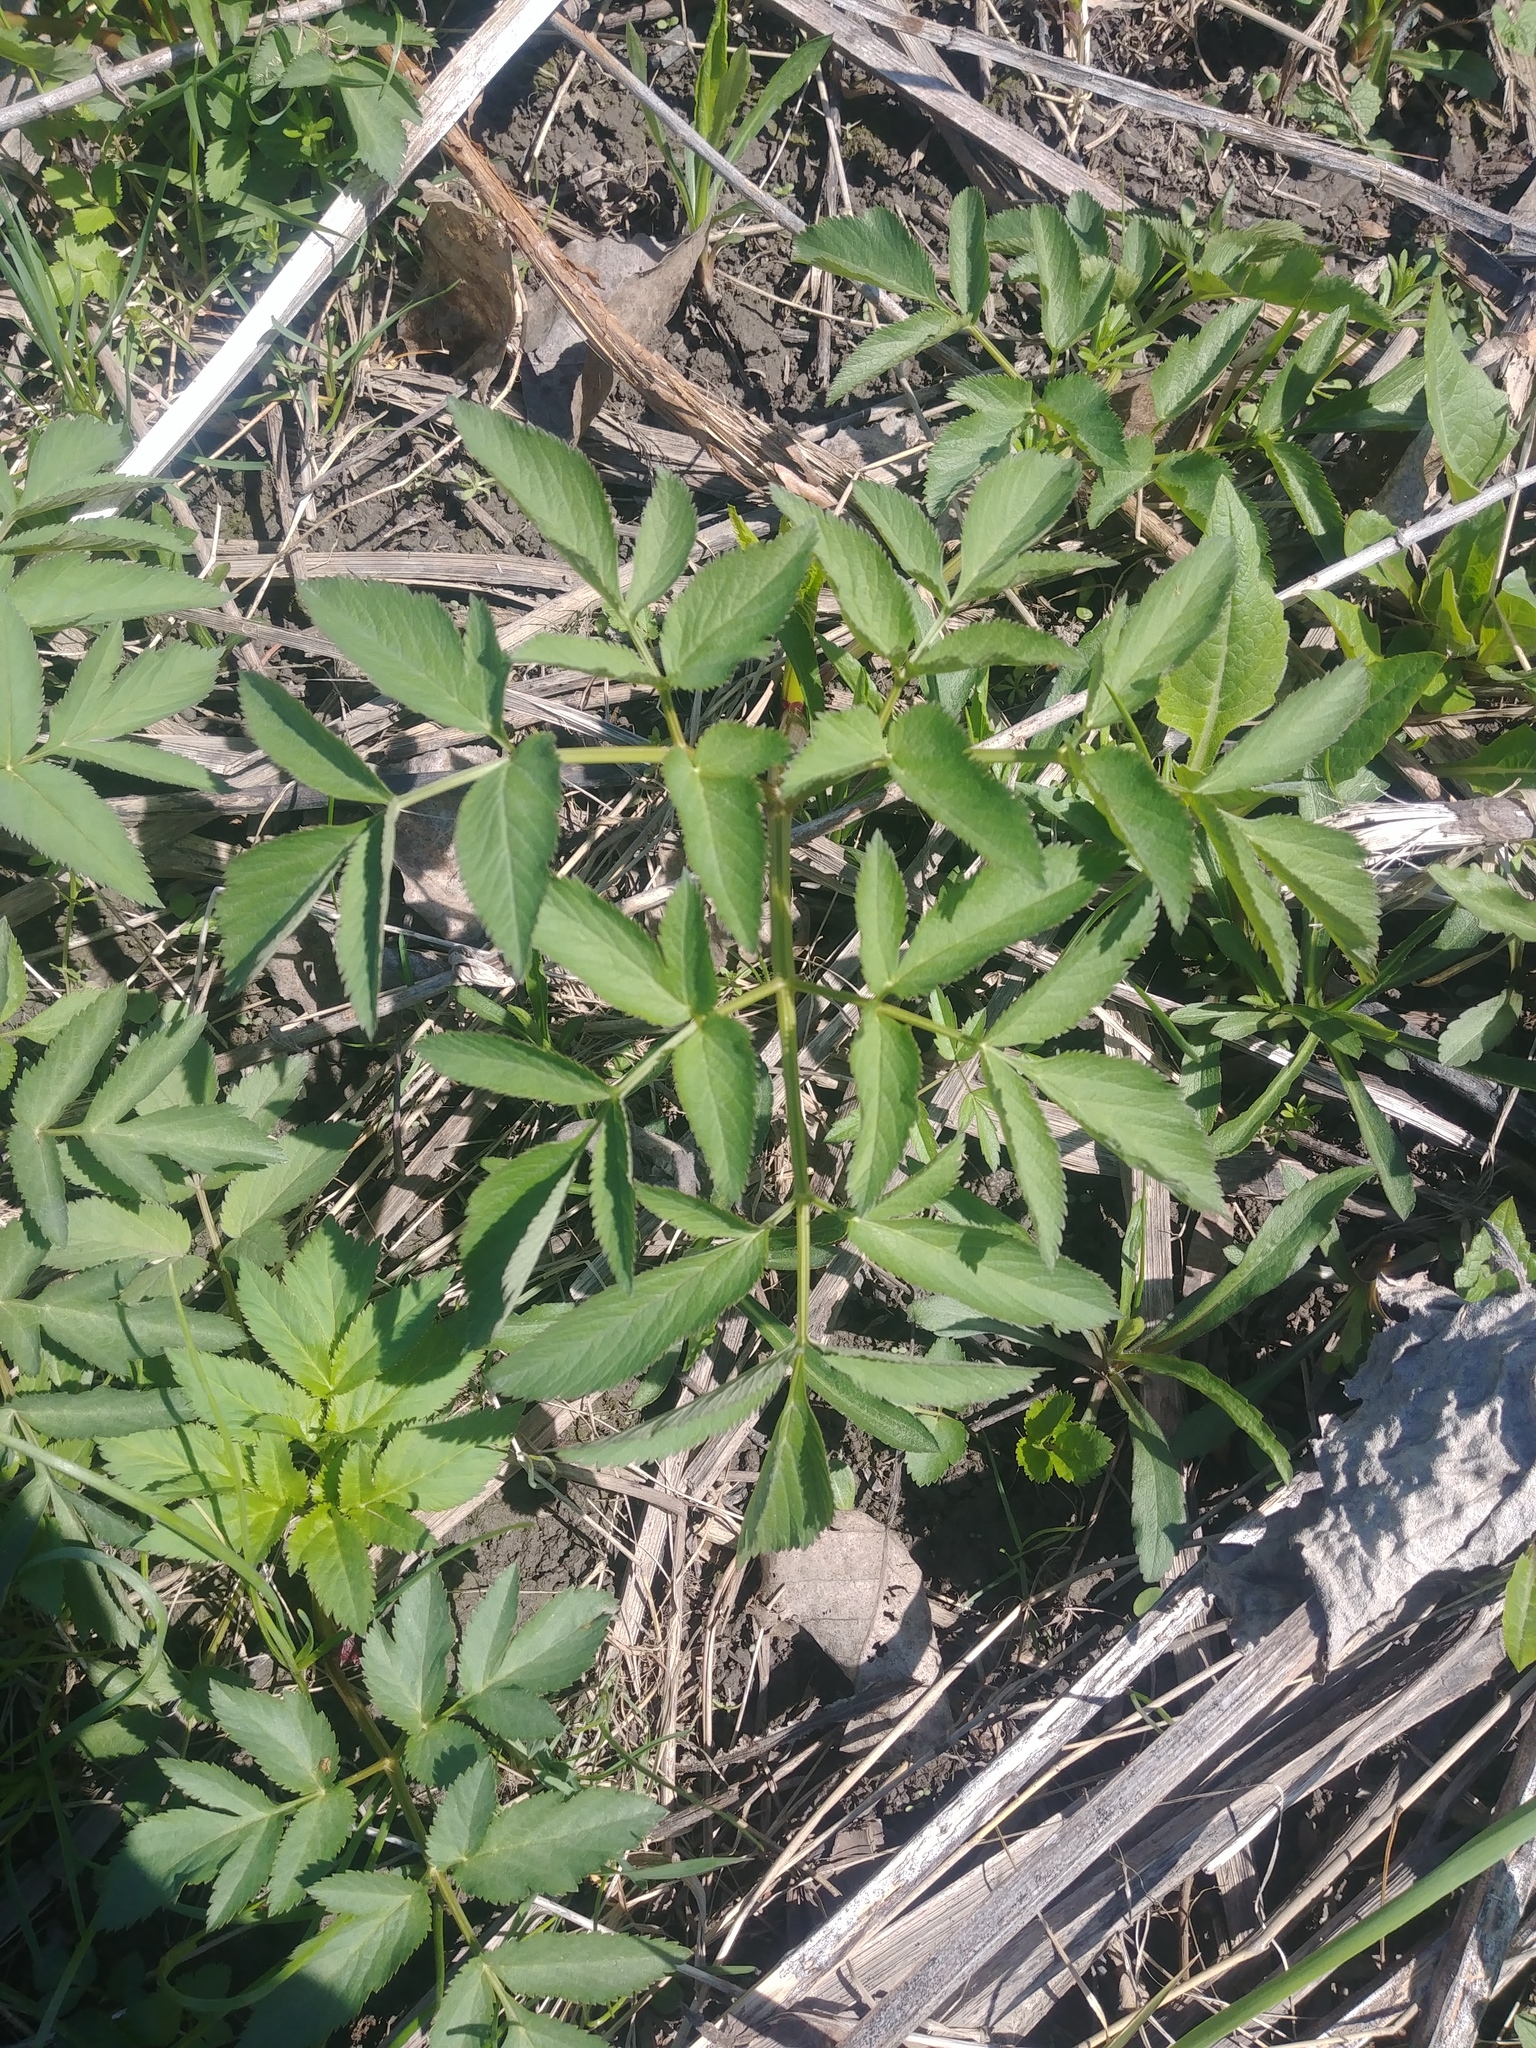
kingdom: Plantae
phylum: Tracheophyta
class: Magnoliopsida
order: Apiales
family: Apiaceae
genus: Angelica
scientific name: Angelica atropurpurea
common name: Great angelica
